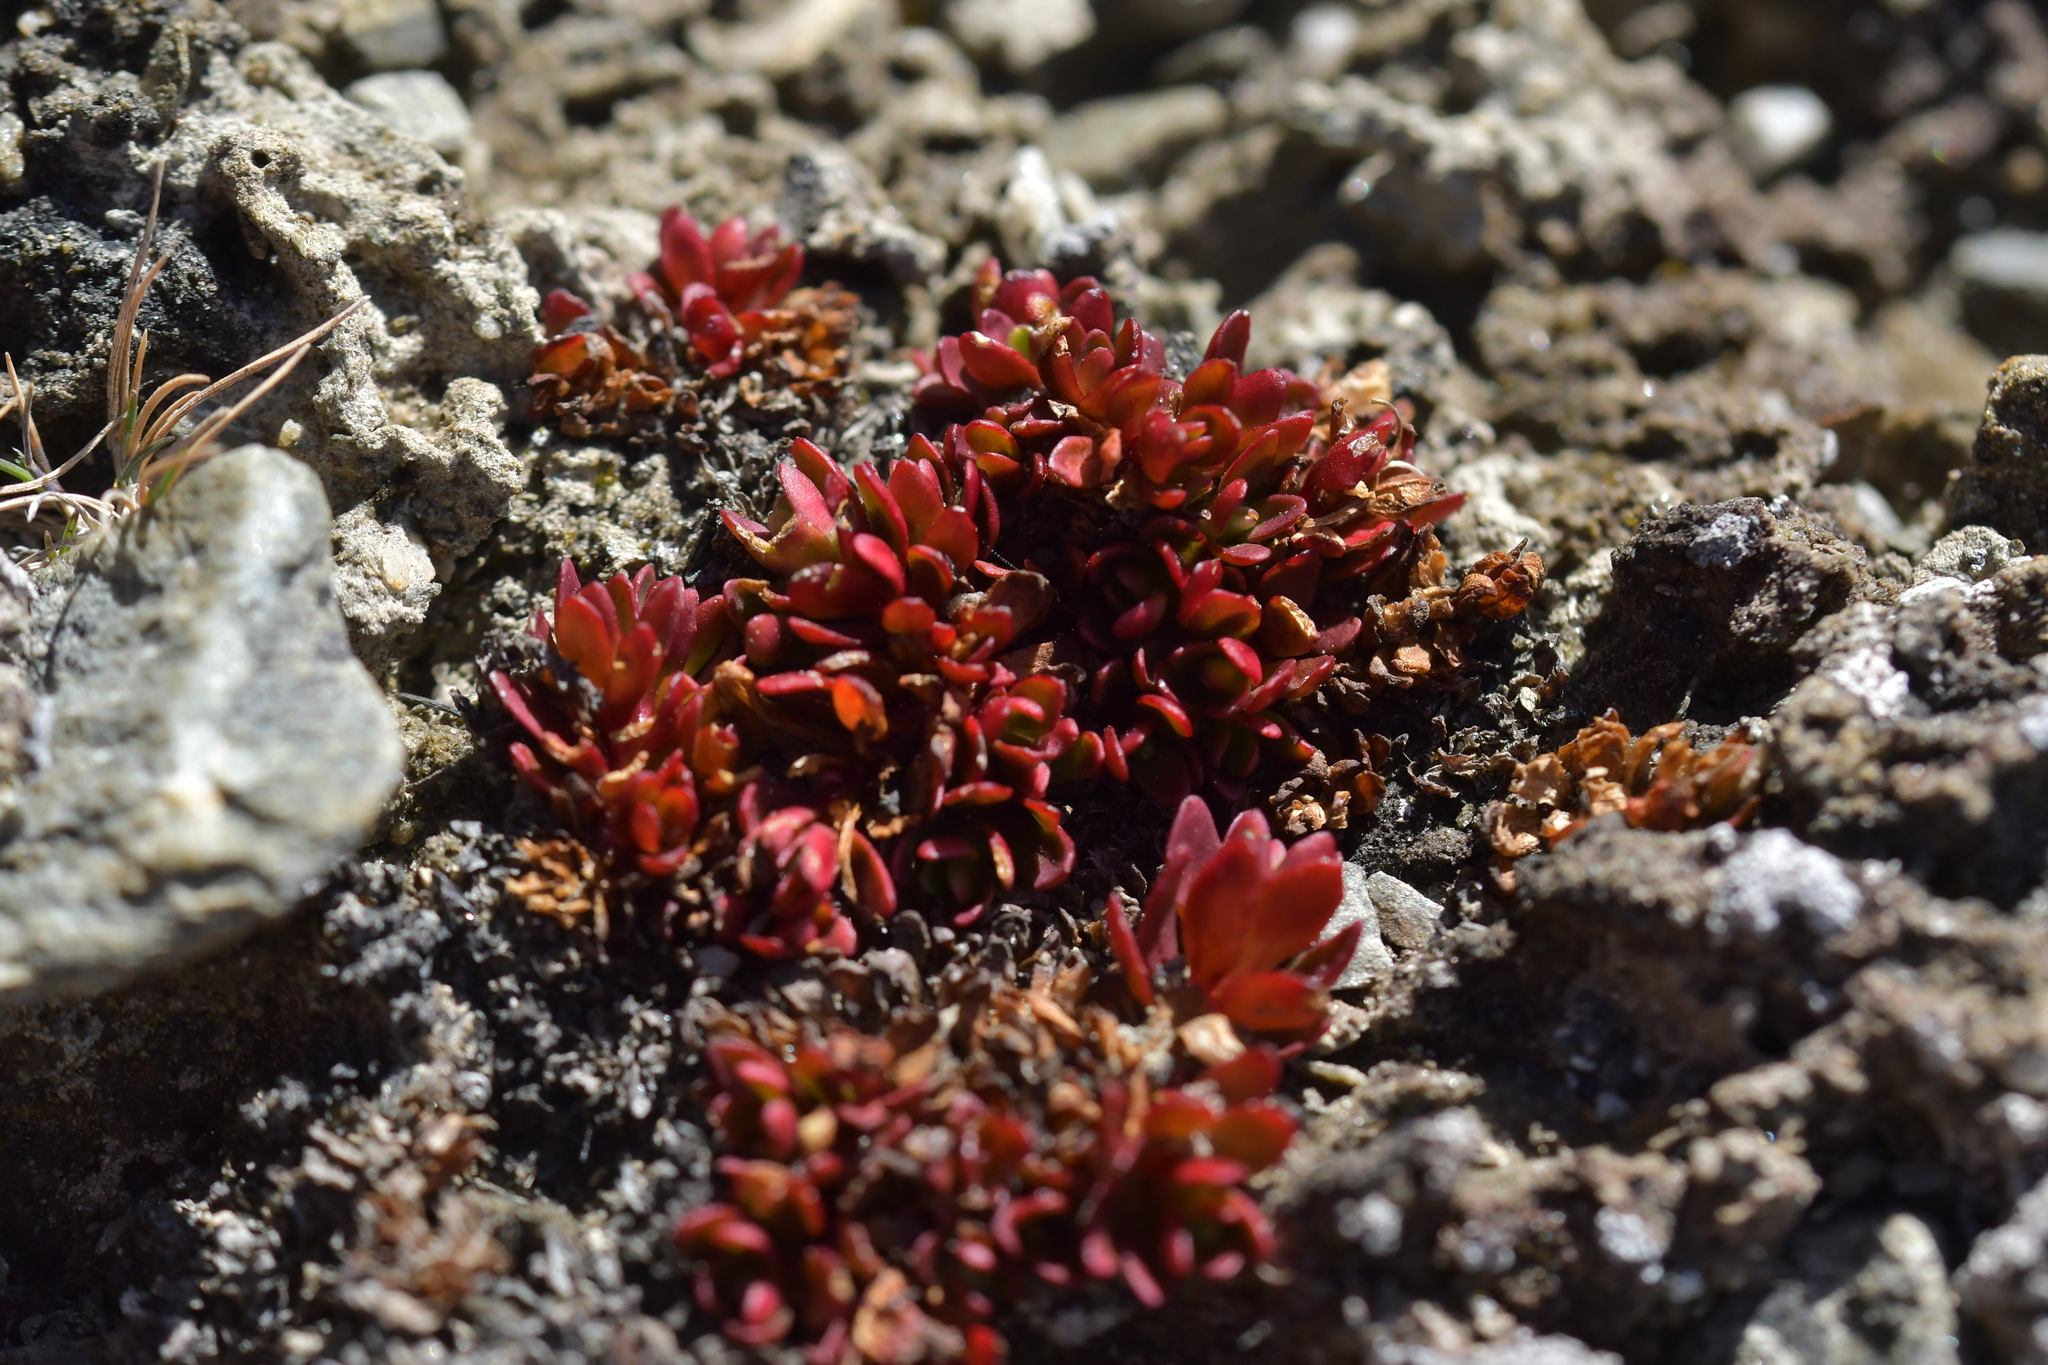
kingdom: Plantae
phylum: Tracheophyta
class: Magnoliopsida
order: Myrtales
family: Onagraceae
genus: Epilobium
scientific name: Epilobium tasmanicum
